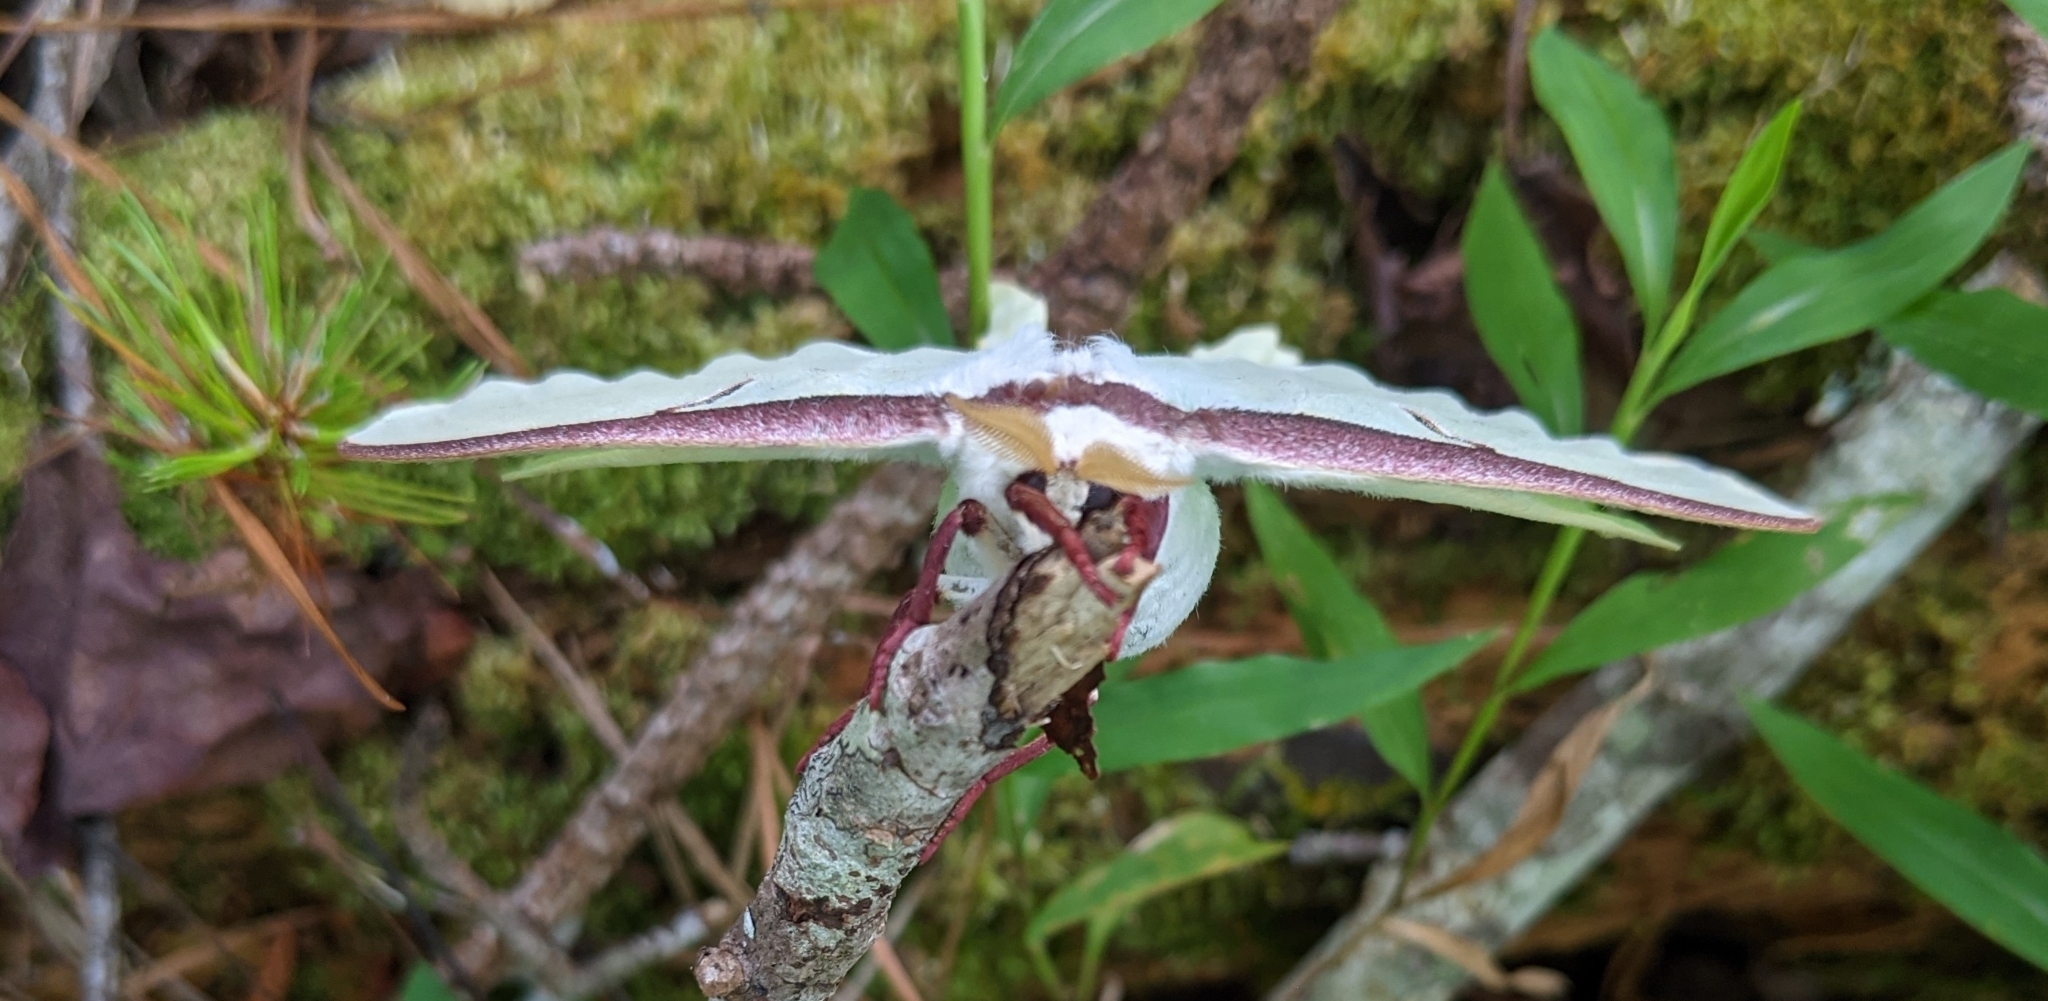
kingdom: Animalia
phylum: Arthropoda
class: Insecta
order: Lepidoptera
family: Saturniidae
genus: Actias
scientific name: Actias luna
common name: Luna moth
